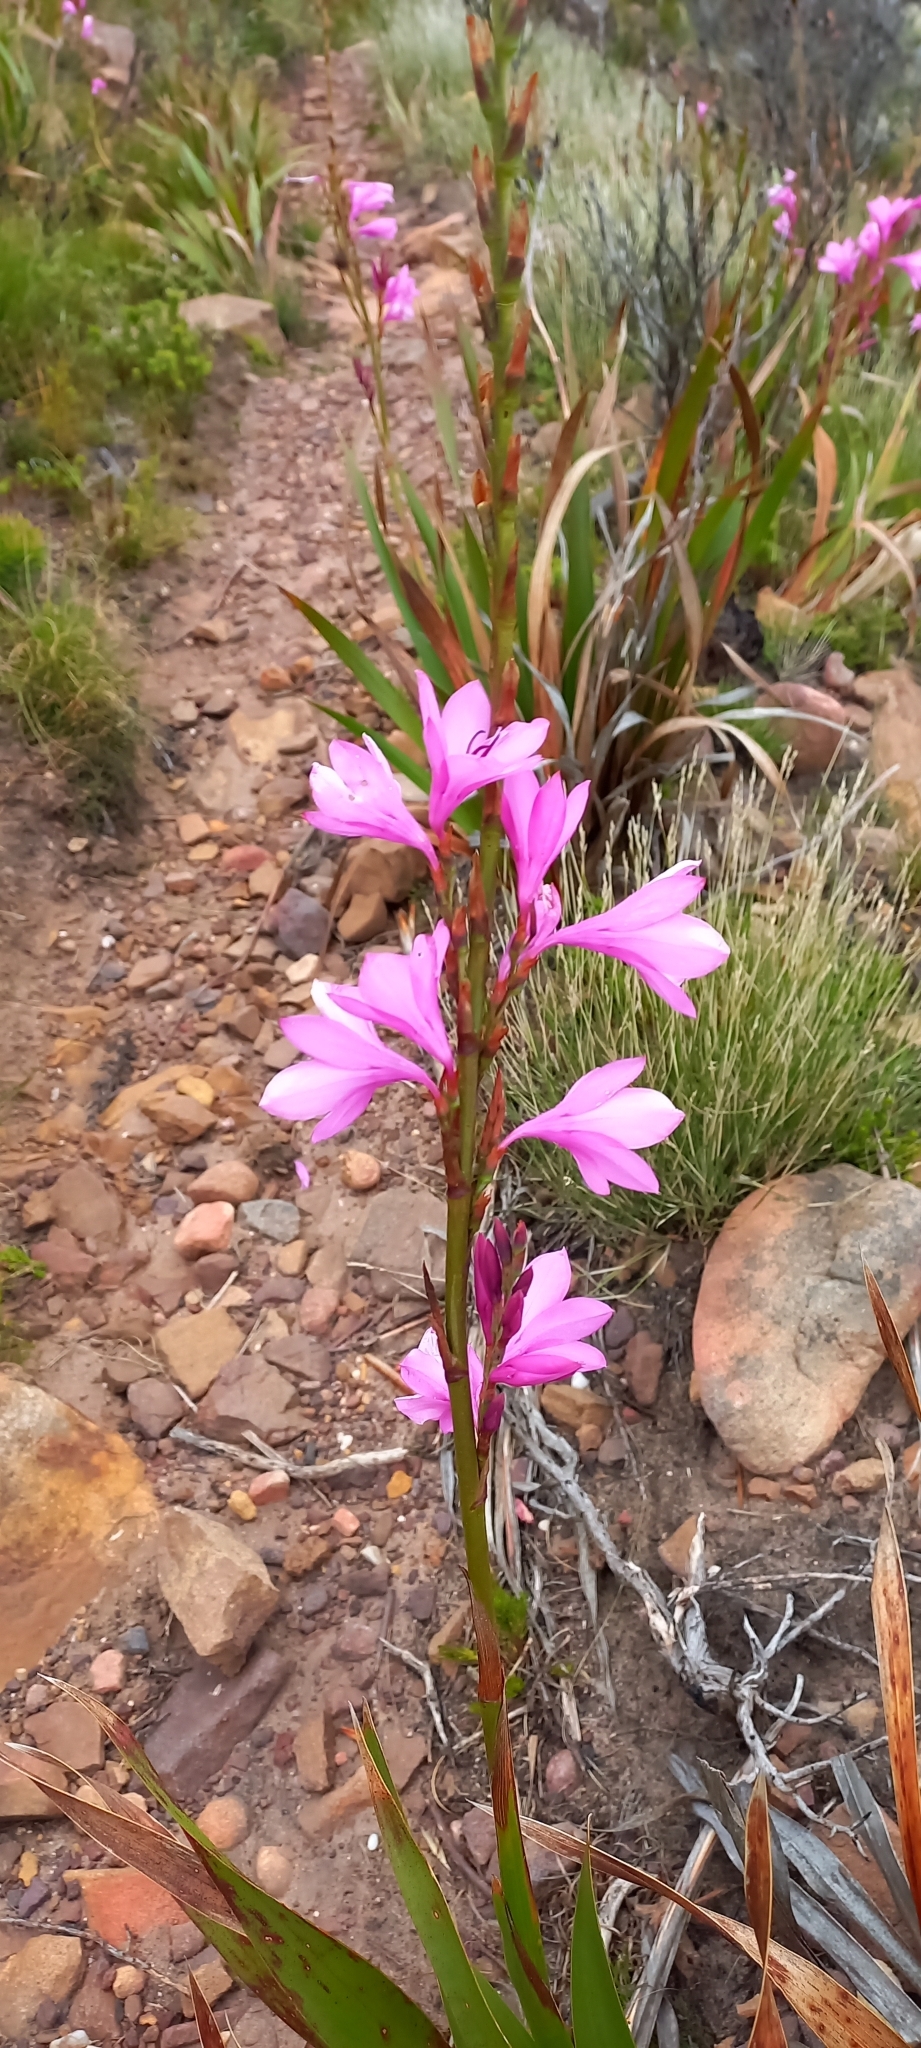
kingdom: Plantae
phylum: Tracheophyta
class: Liliopsida
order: Asparagales
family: Iridaceae
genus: Watsonia
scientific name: Watsonia borbonica
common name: Bugle-lily
